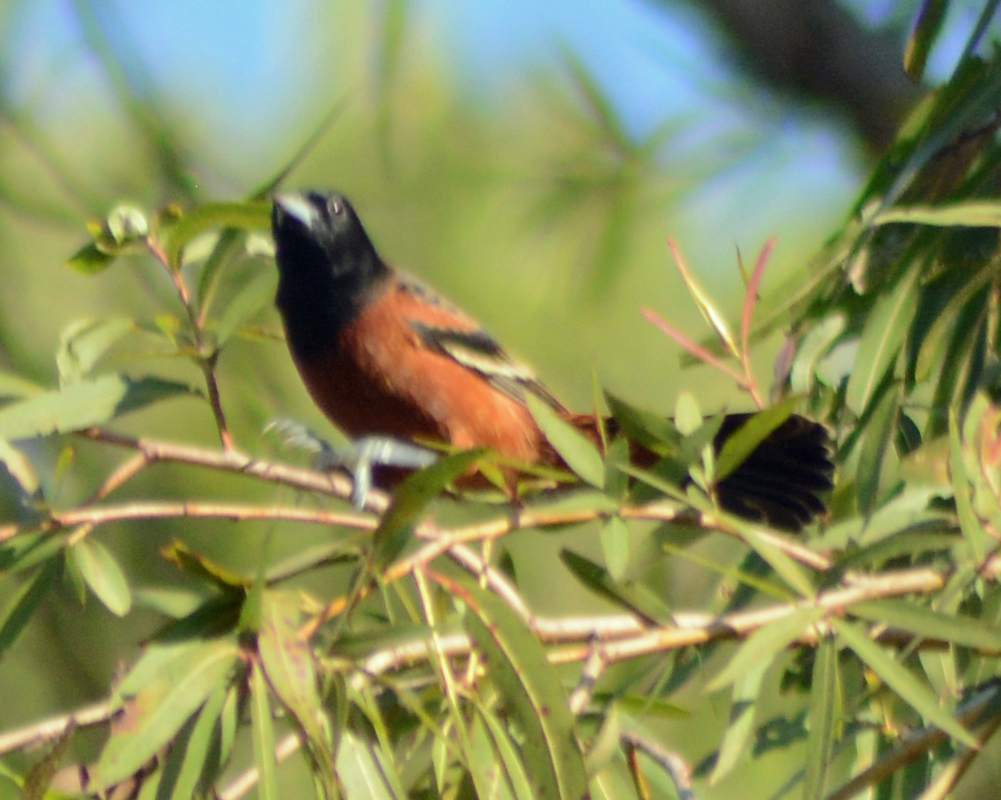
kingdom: Animalia
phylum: Chordata
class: Aves
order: Passeriformes
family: Icteridae
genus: Icterus
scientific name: Icterus spurius
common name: Orchard oriole
